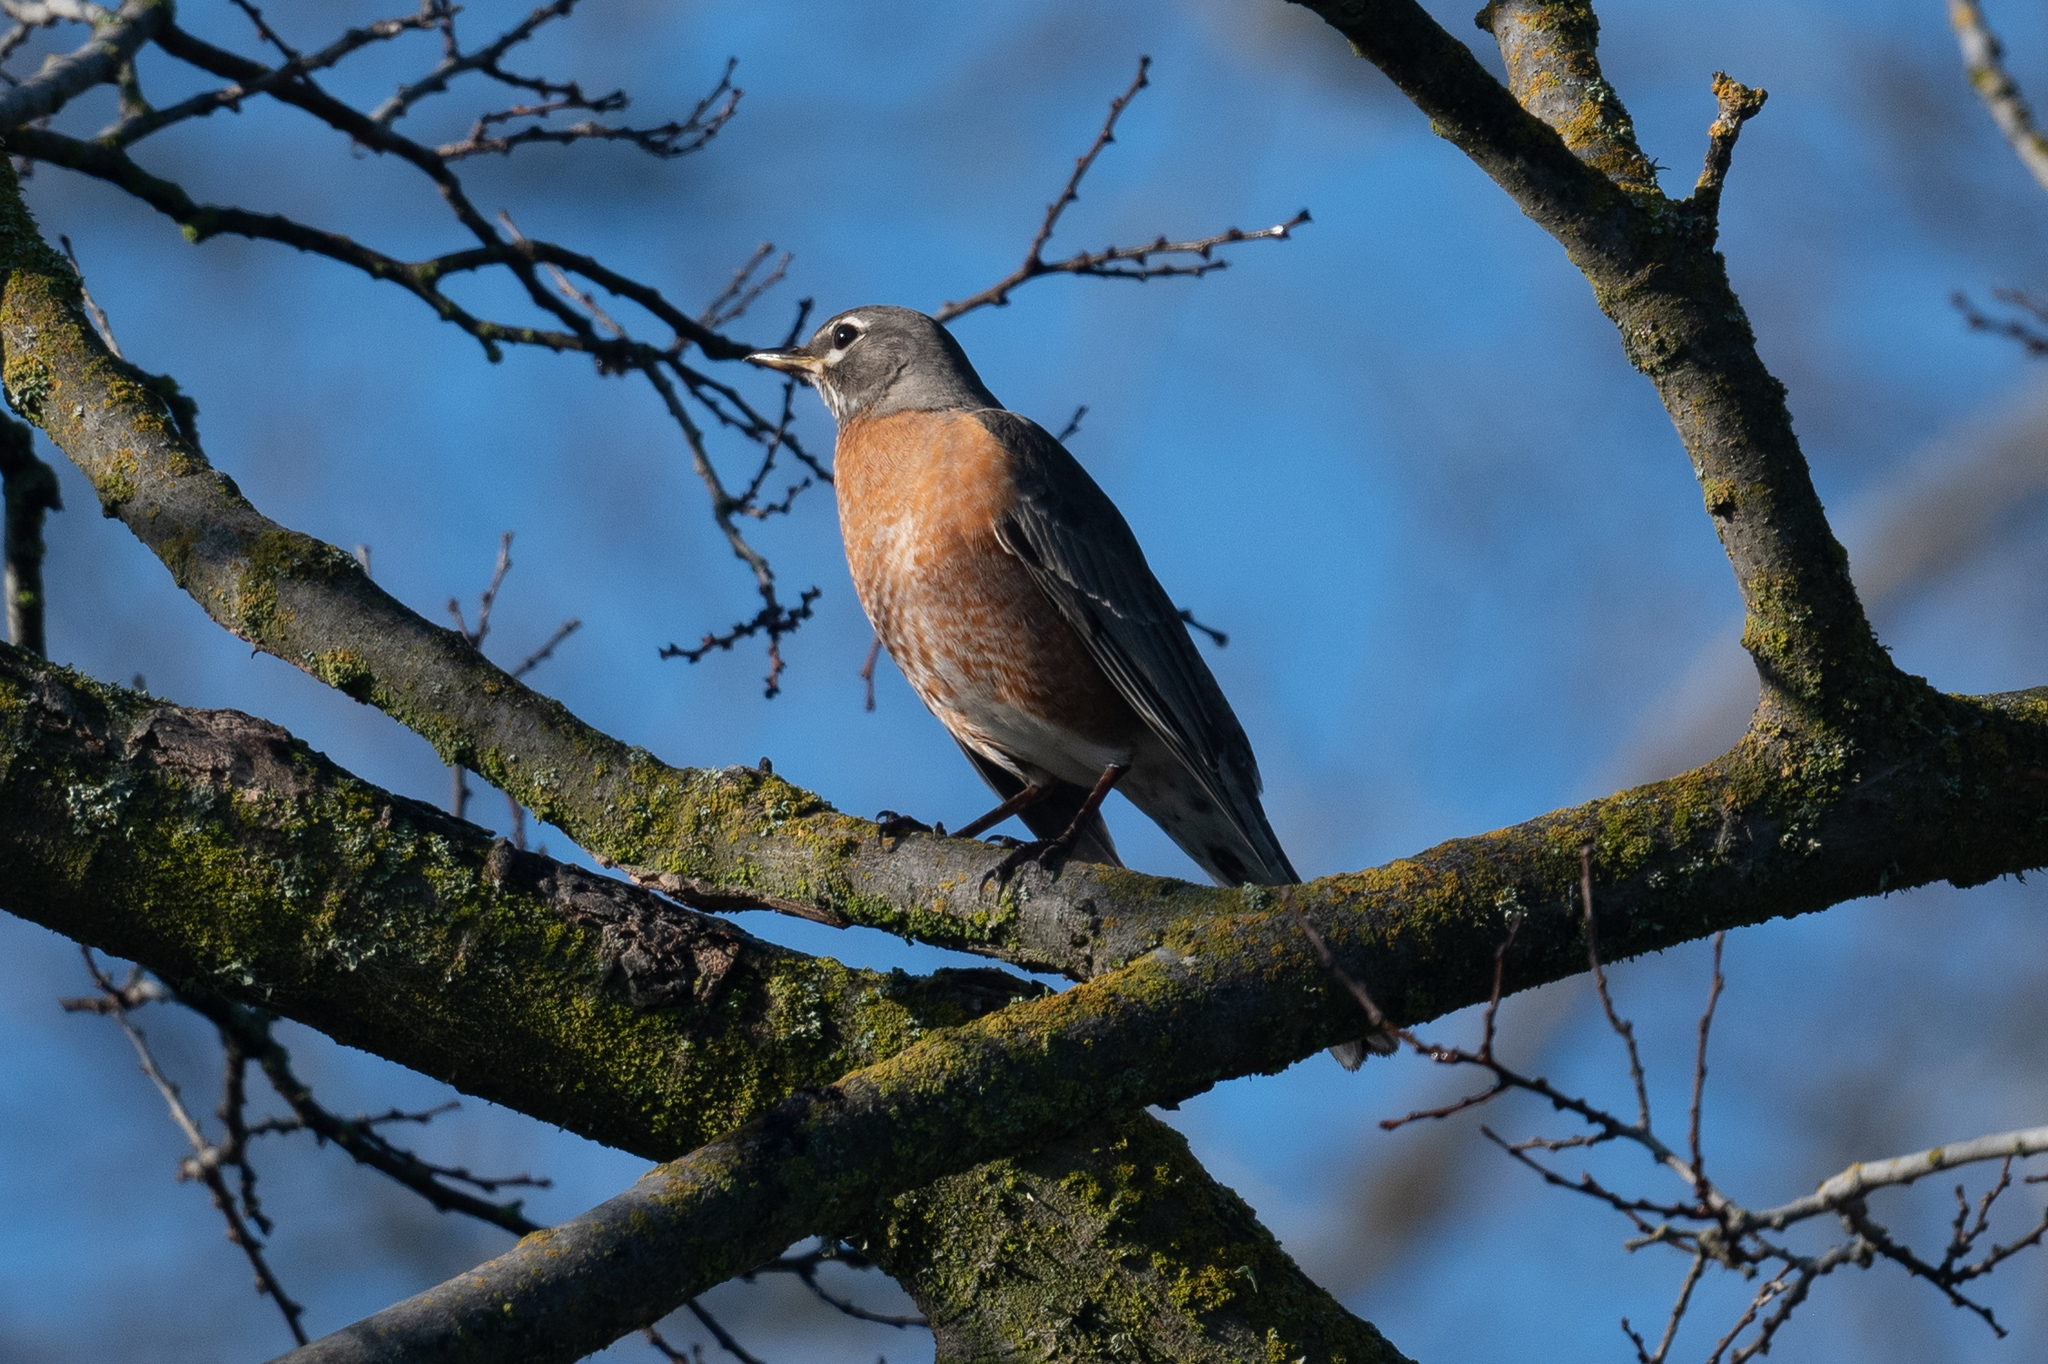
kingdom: Animalia
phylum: Chordata
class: Aves
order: Passeriformes
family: Turdidae
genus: Turdus
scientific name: Turdus migratorius
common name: American robin
